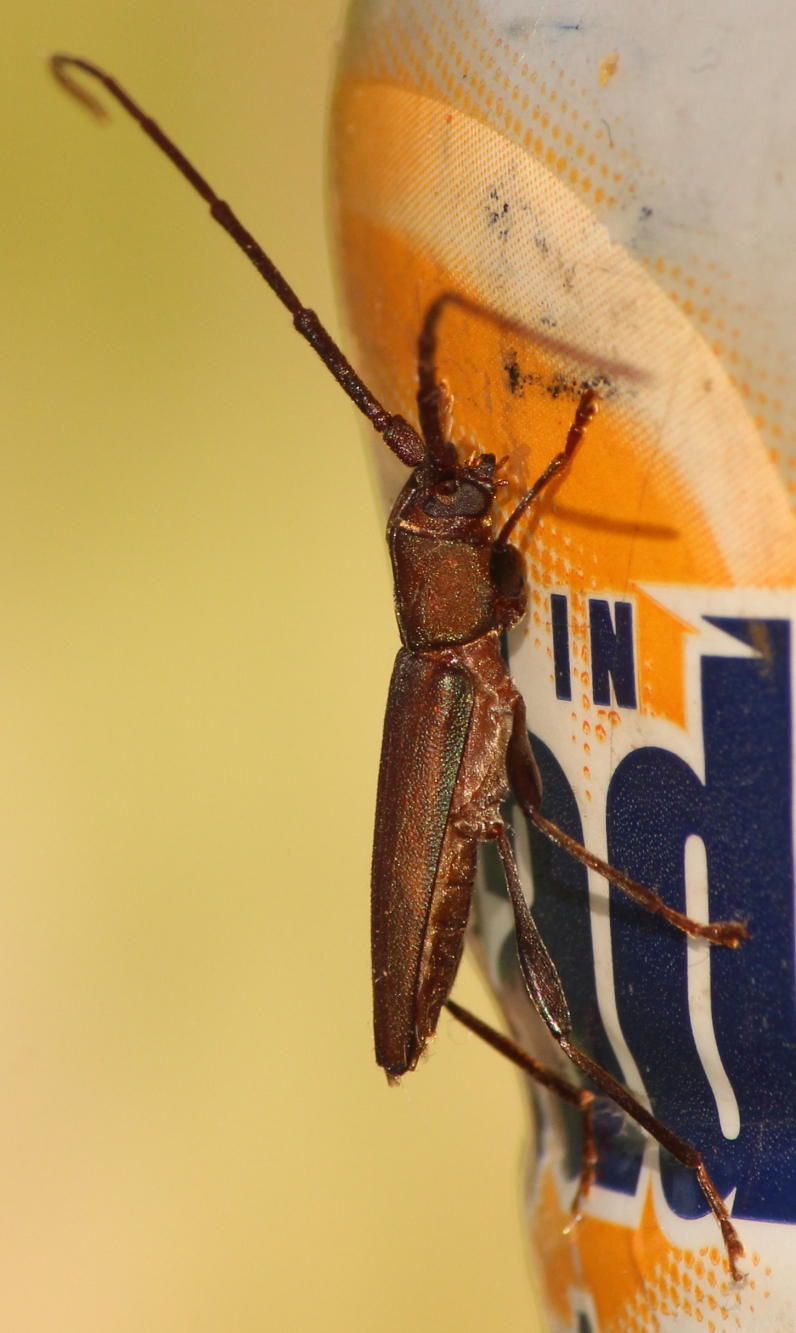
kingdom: Animalia
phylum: Arthropoda
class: Insecta
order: Coleoptera
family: Cerambycidae
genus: Xystrocera
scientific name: Xystrocera erosa
